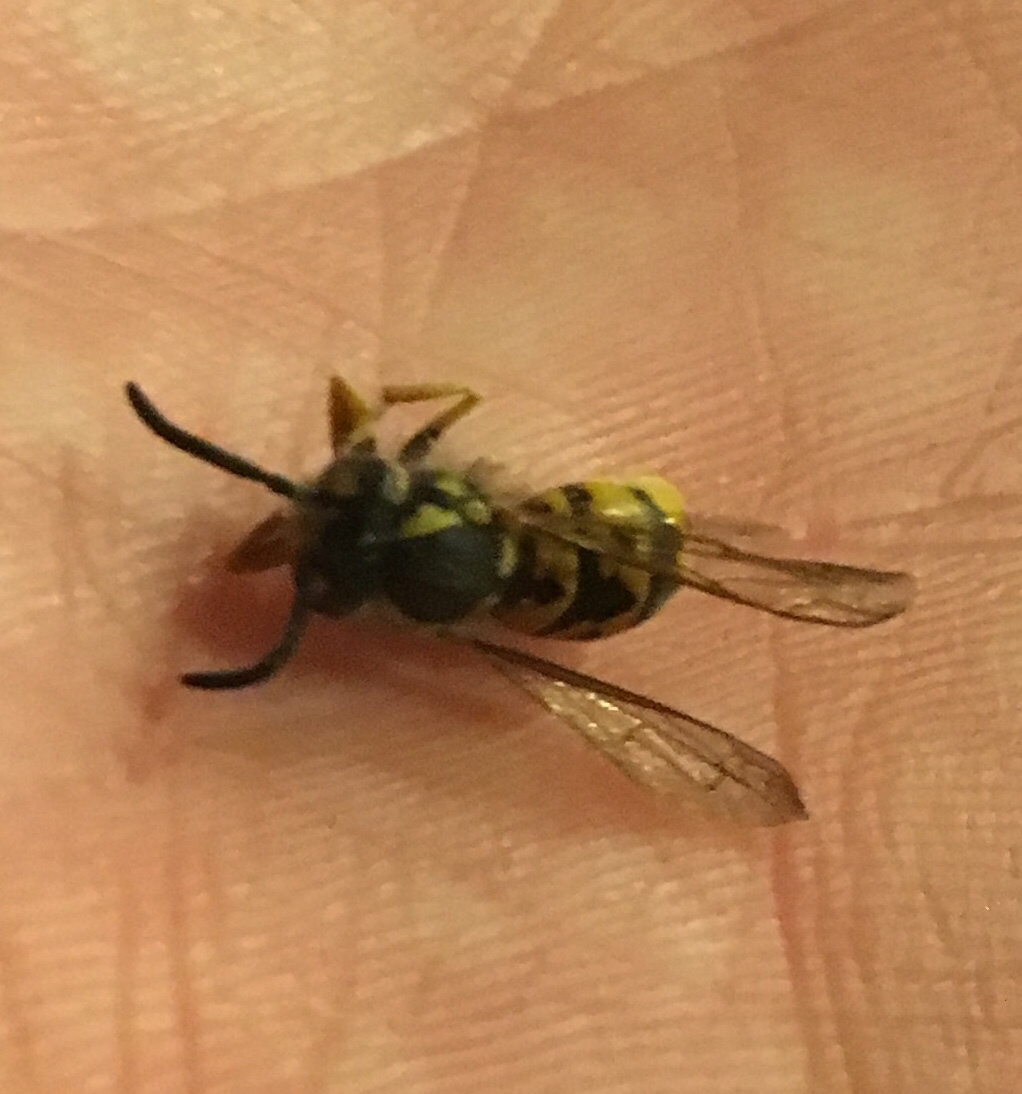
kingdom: Animalia
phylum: Arthropoda
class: Insecta
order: Hymenoptera
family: Vespidae
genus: Vespula
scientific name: Vespula germanica
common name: German wasp
